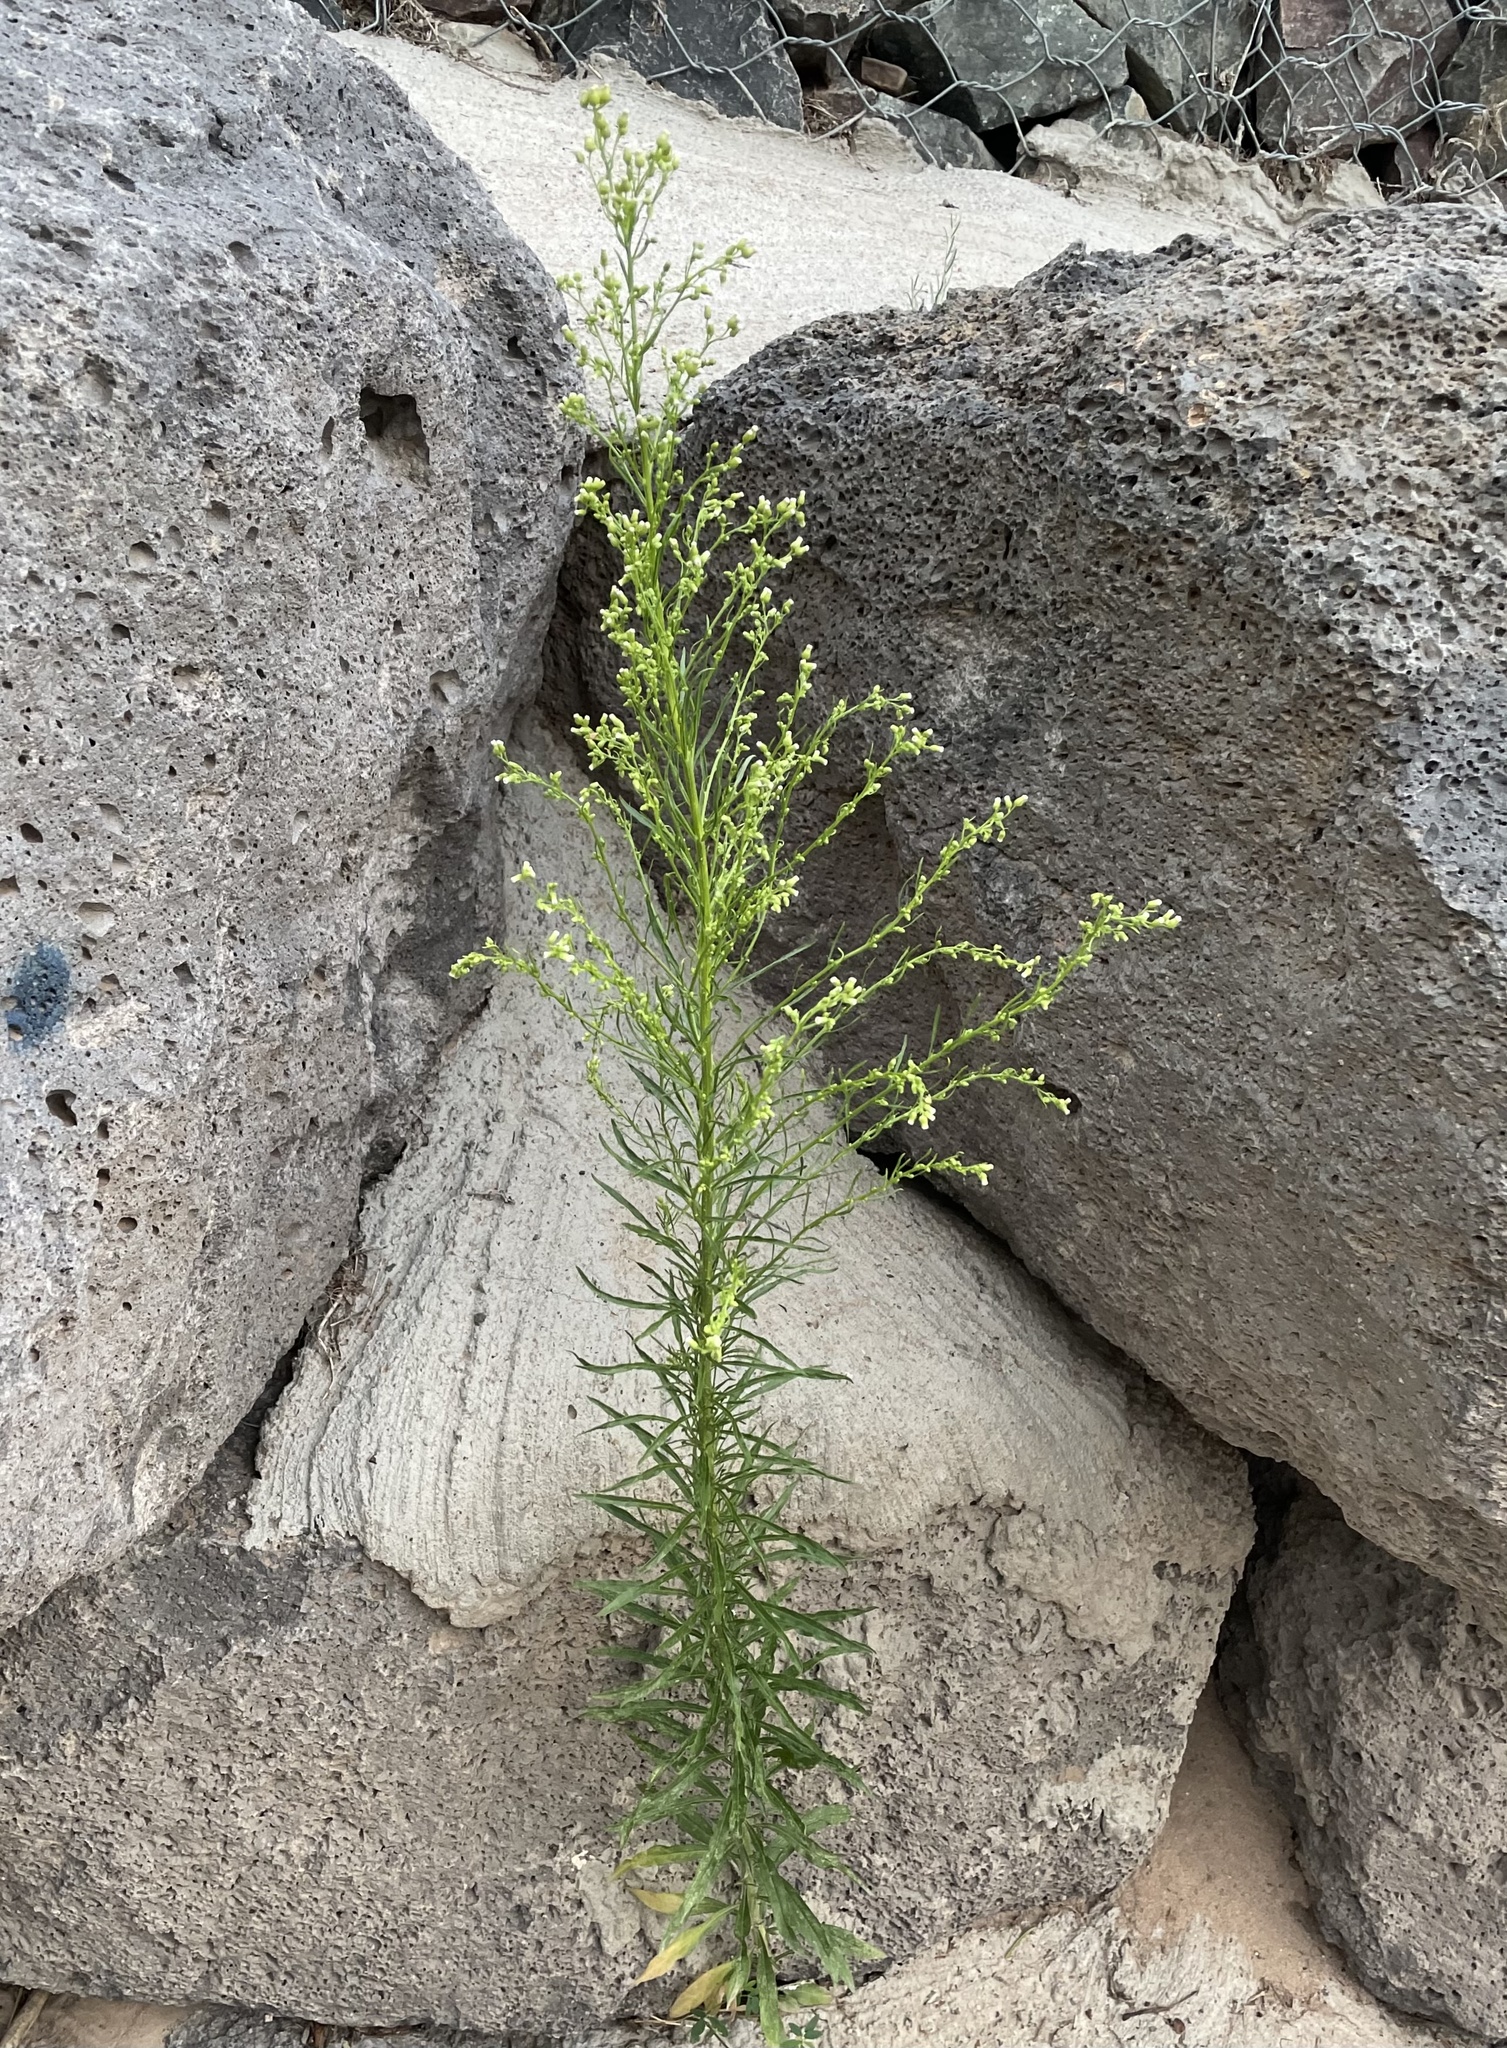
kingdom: Plantae
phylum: Tracheophyta
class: Magnoliopsida
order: Asterales
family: Asteraceae
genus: Erigeron
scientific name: Erigeron canadensis
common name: Canadian fleabane
